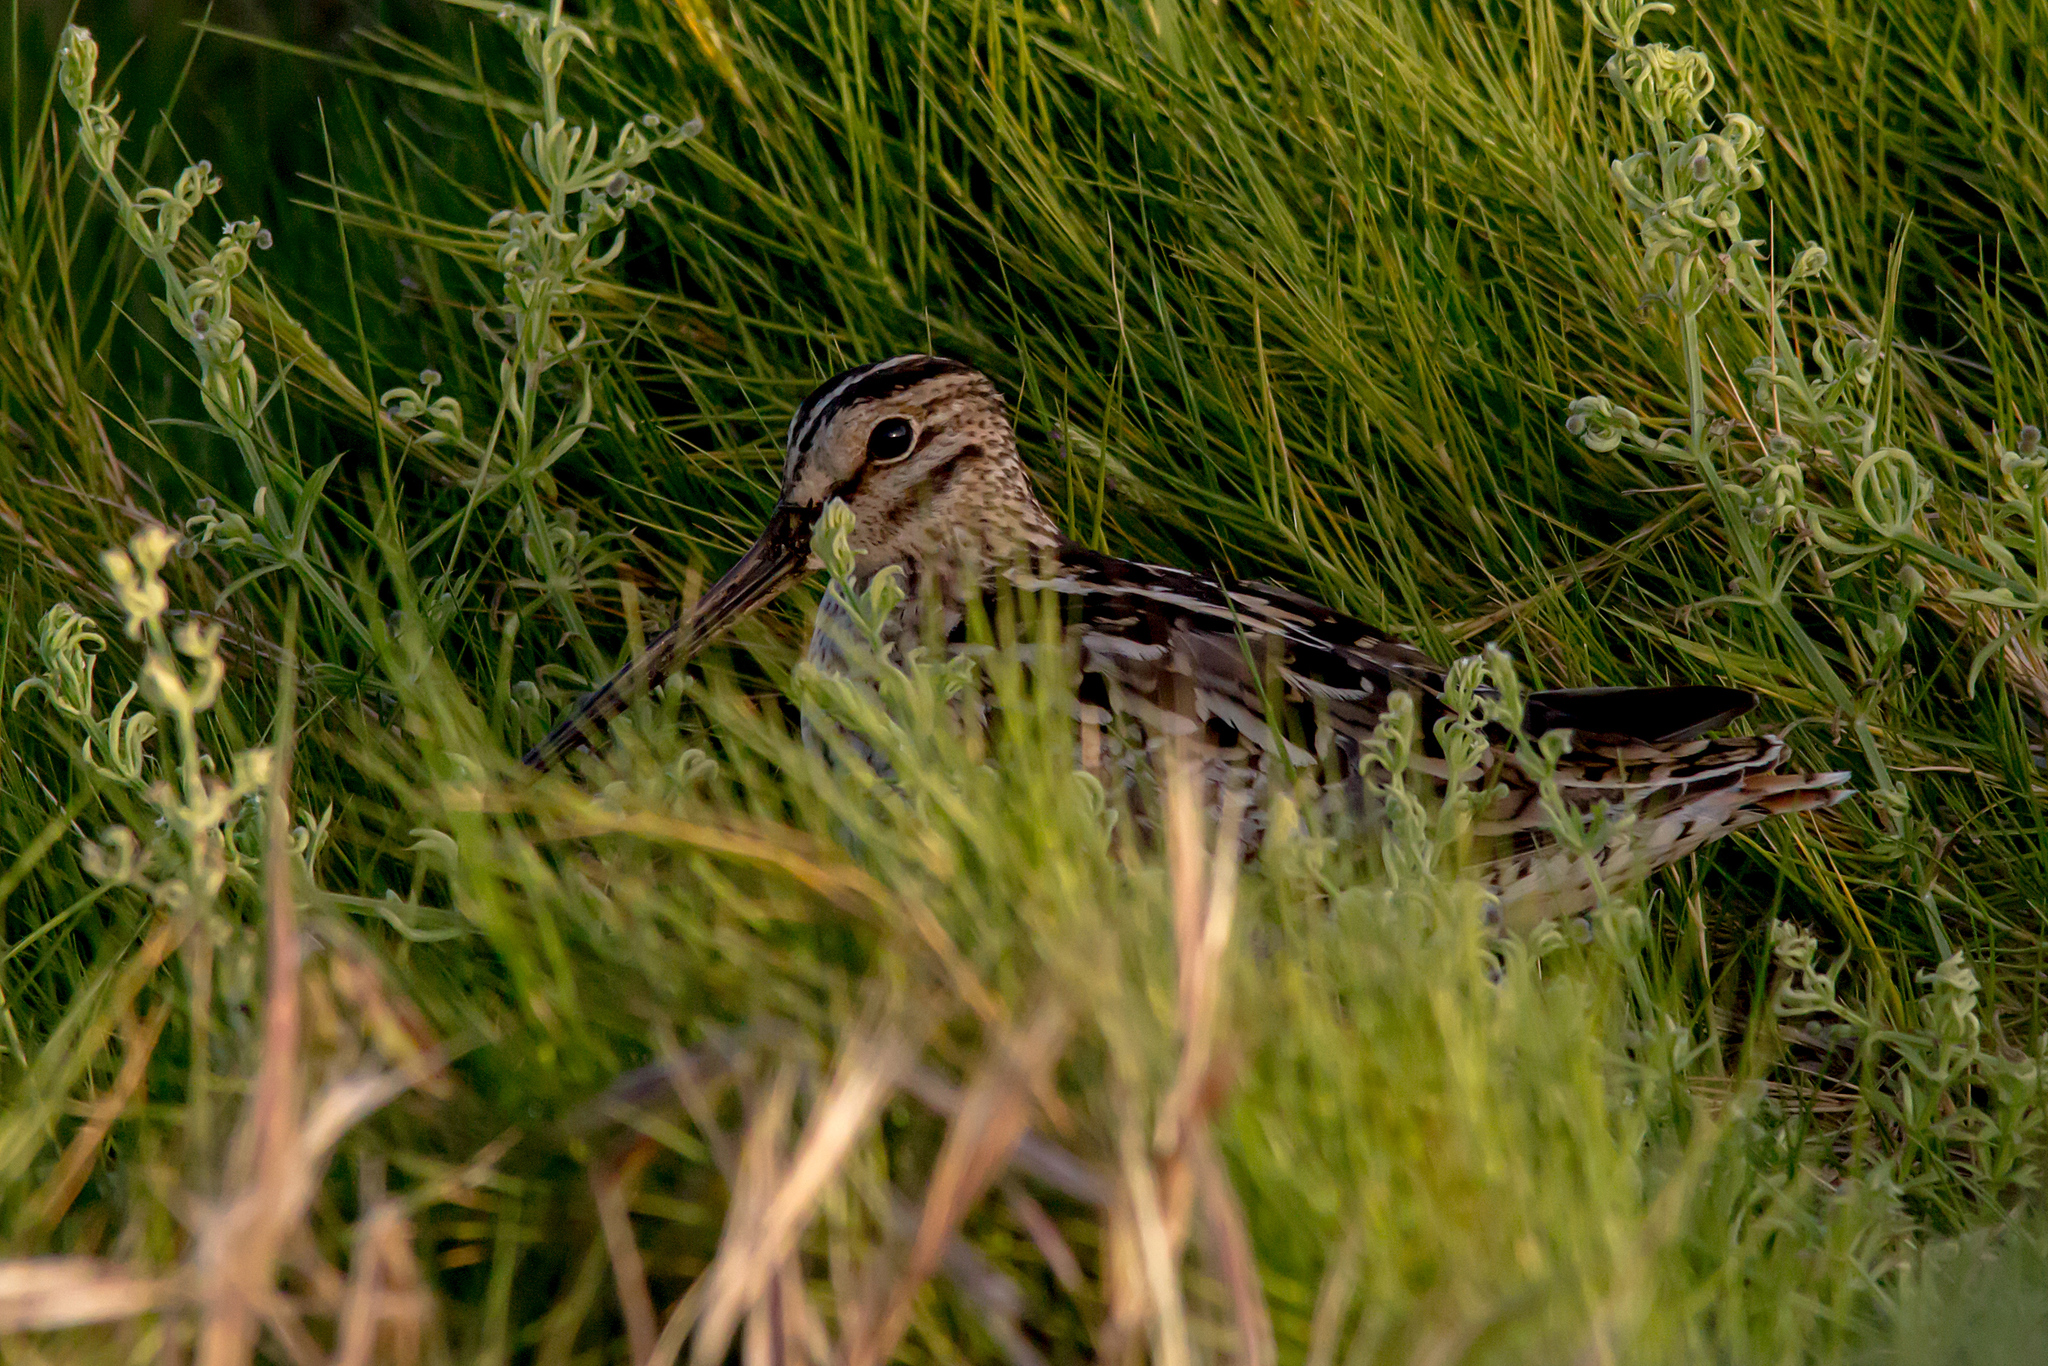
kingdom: Animalia
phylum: Chordata
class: Aves
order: Charadriiformes
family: Scolopacidae
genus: Gallinago
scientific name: Gallinago hardwickii
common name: Latham's snipe
